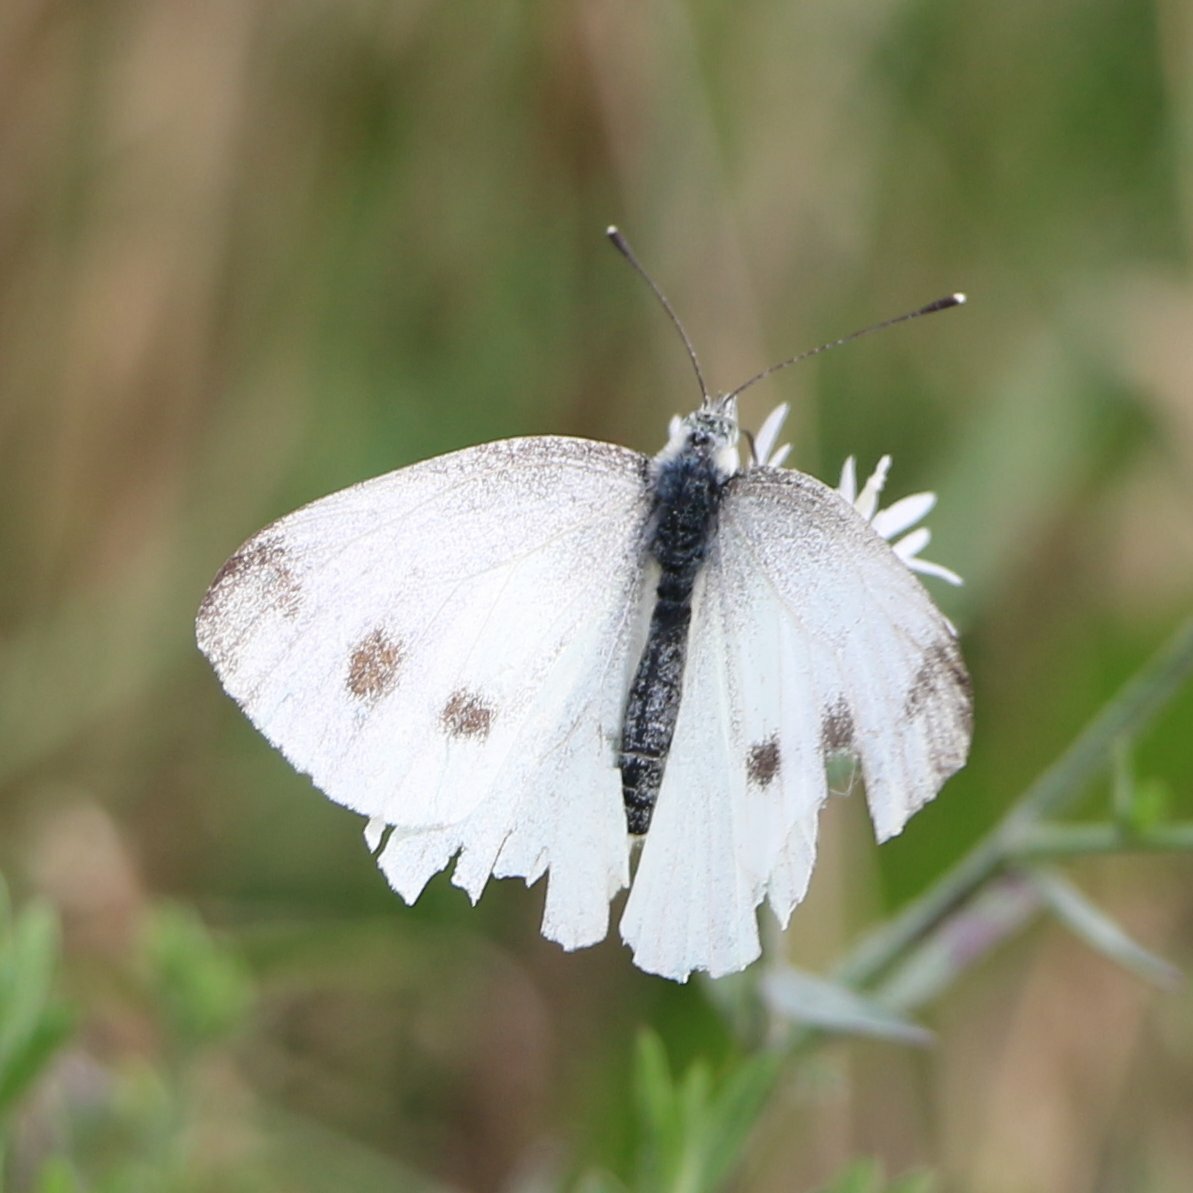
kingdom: Animalia
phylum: Arthropoda
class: Insecta
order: Lepidoptera
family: Pieridae
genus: Pieris
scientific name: Pieris rapae
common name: Small white
